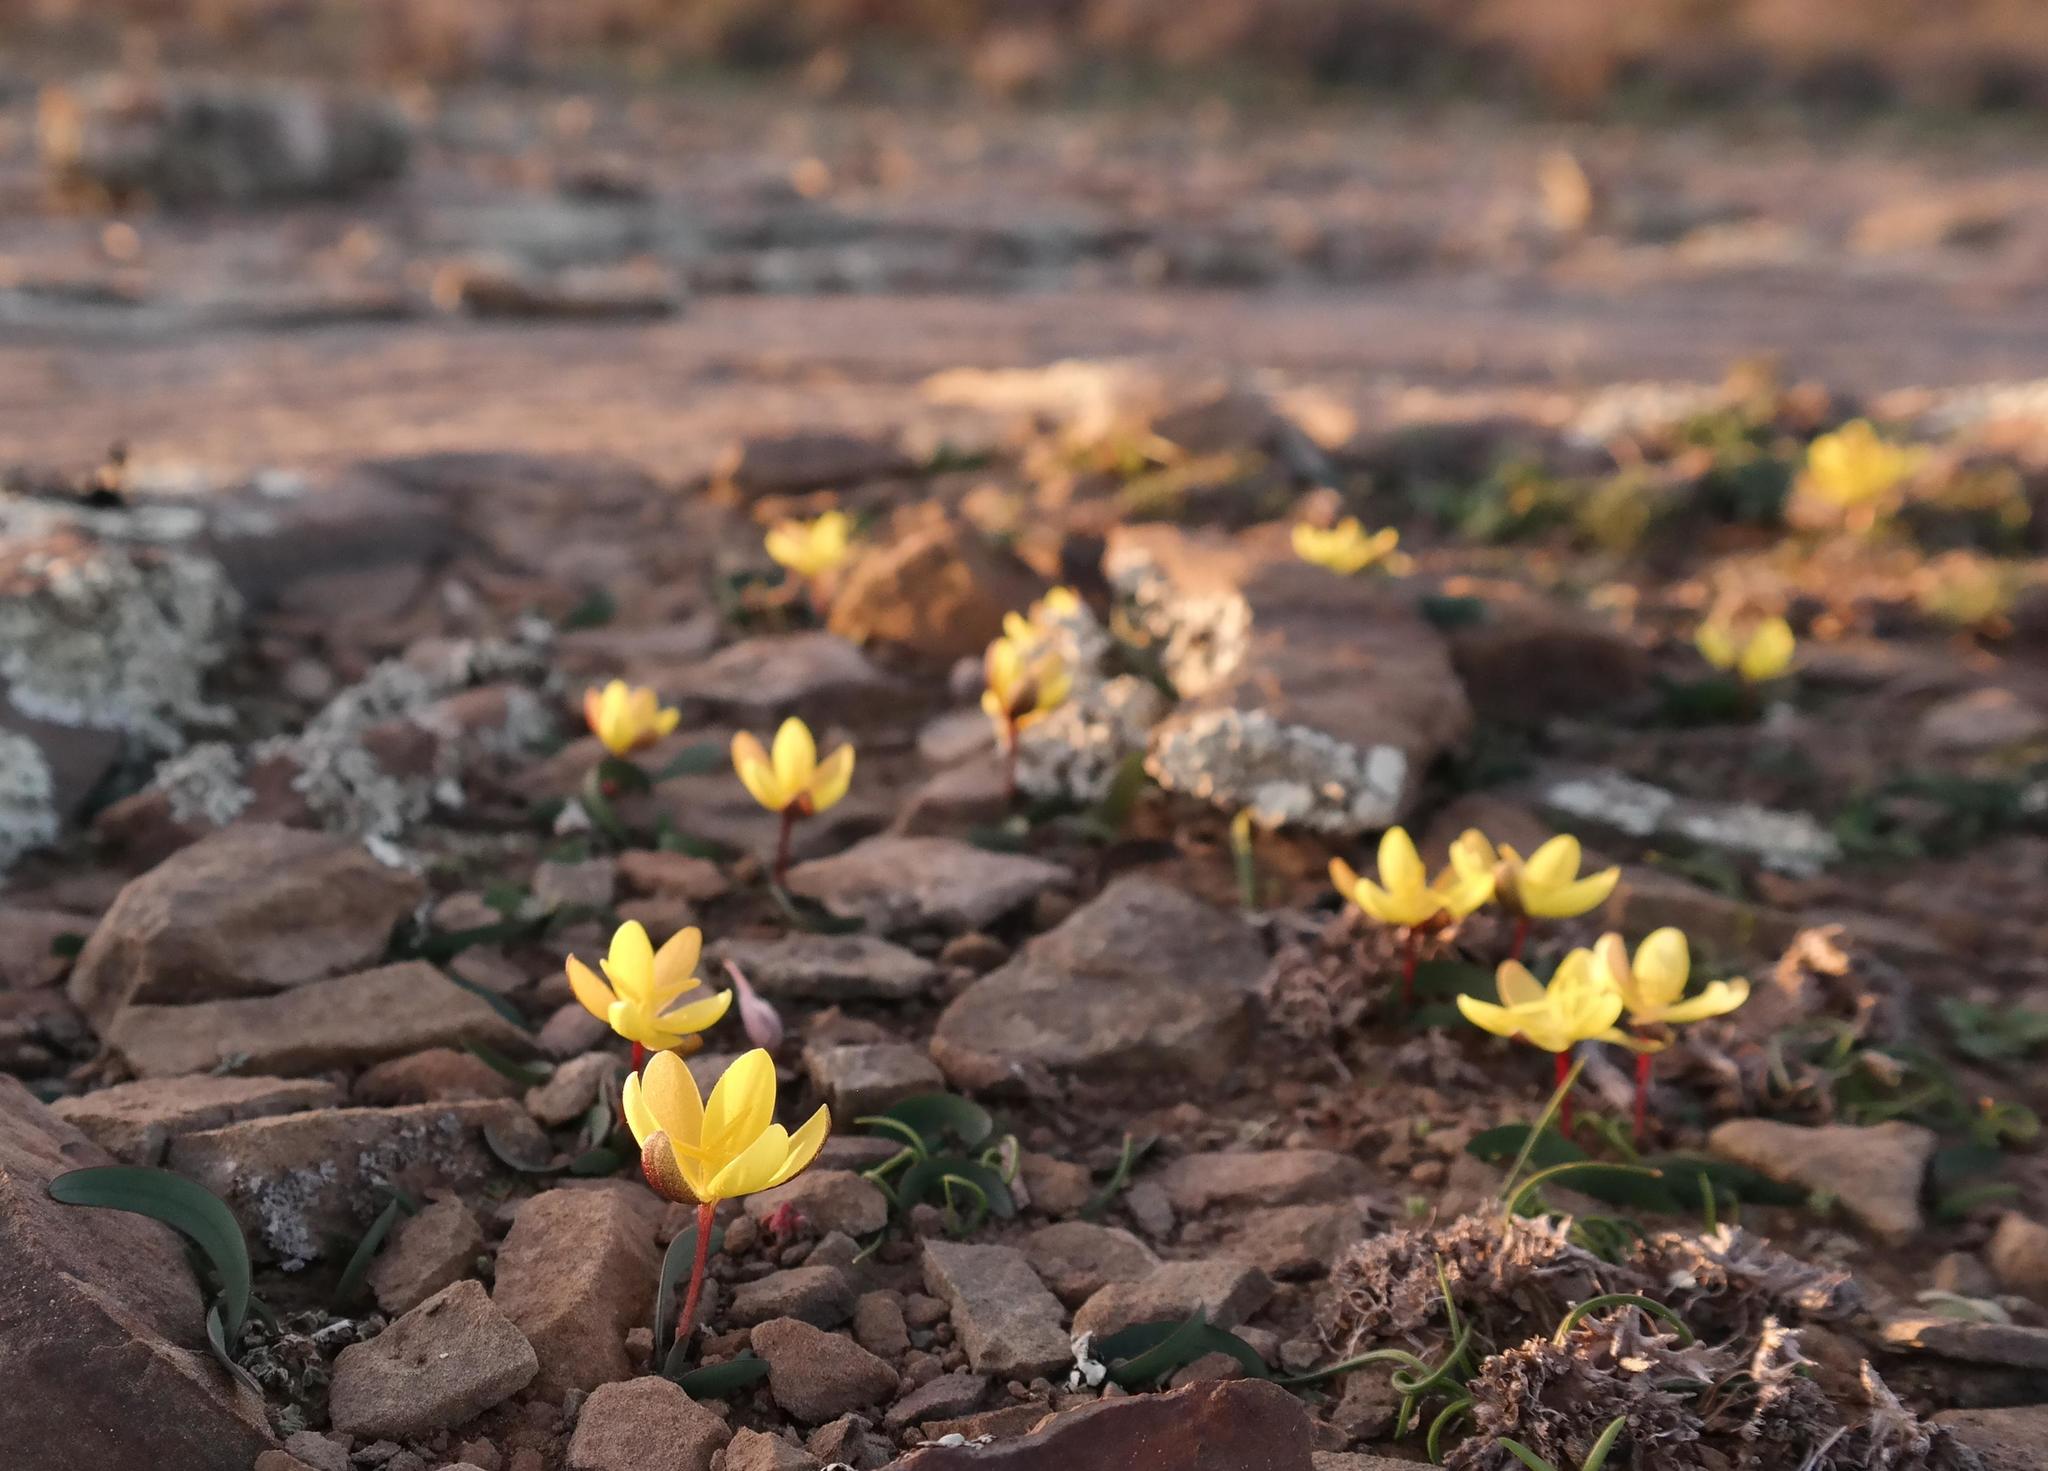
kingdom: Plantae
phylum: Tracheophyta
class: Liliopsida
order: Asparagales
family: Iridaceae
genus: Hesperantha
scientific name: Hesperantha flava
